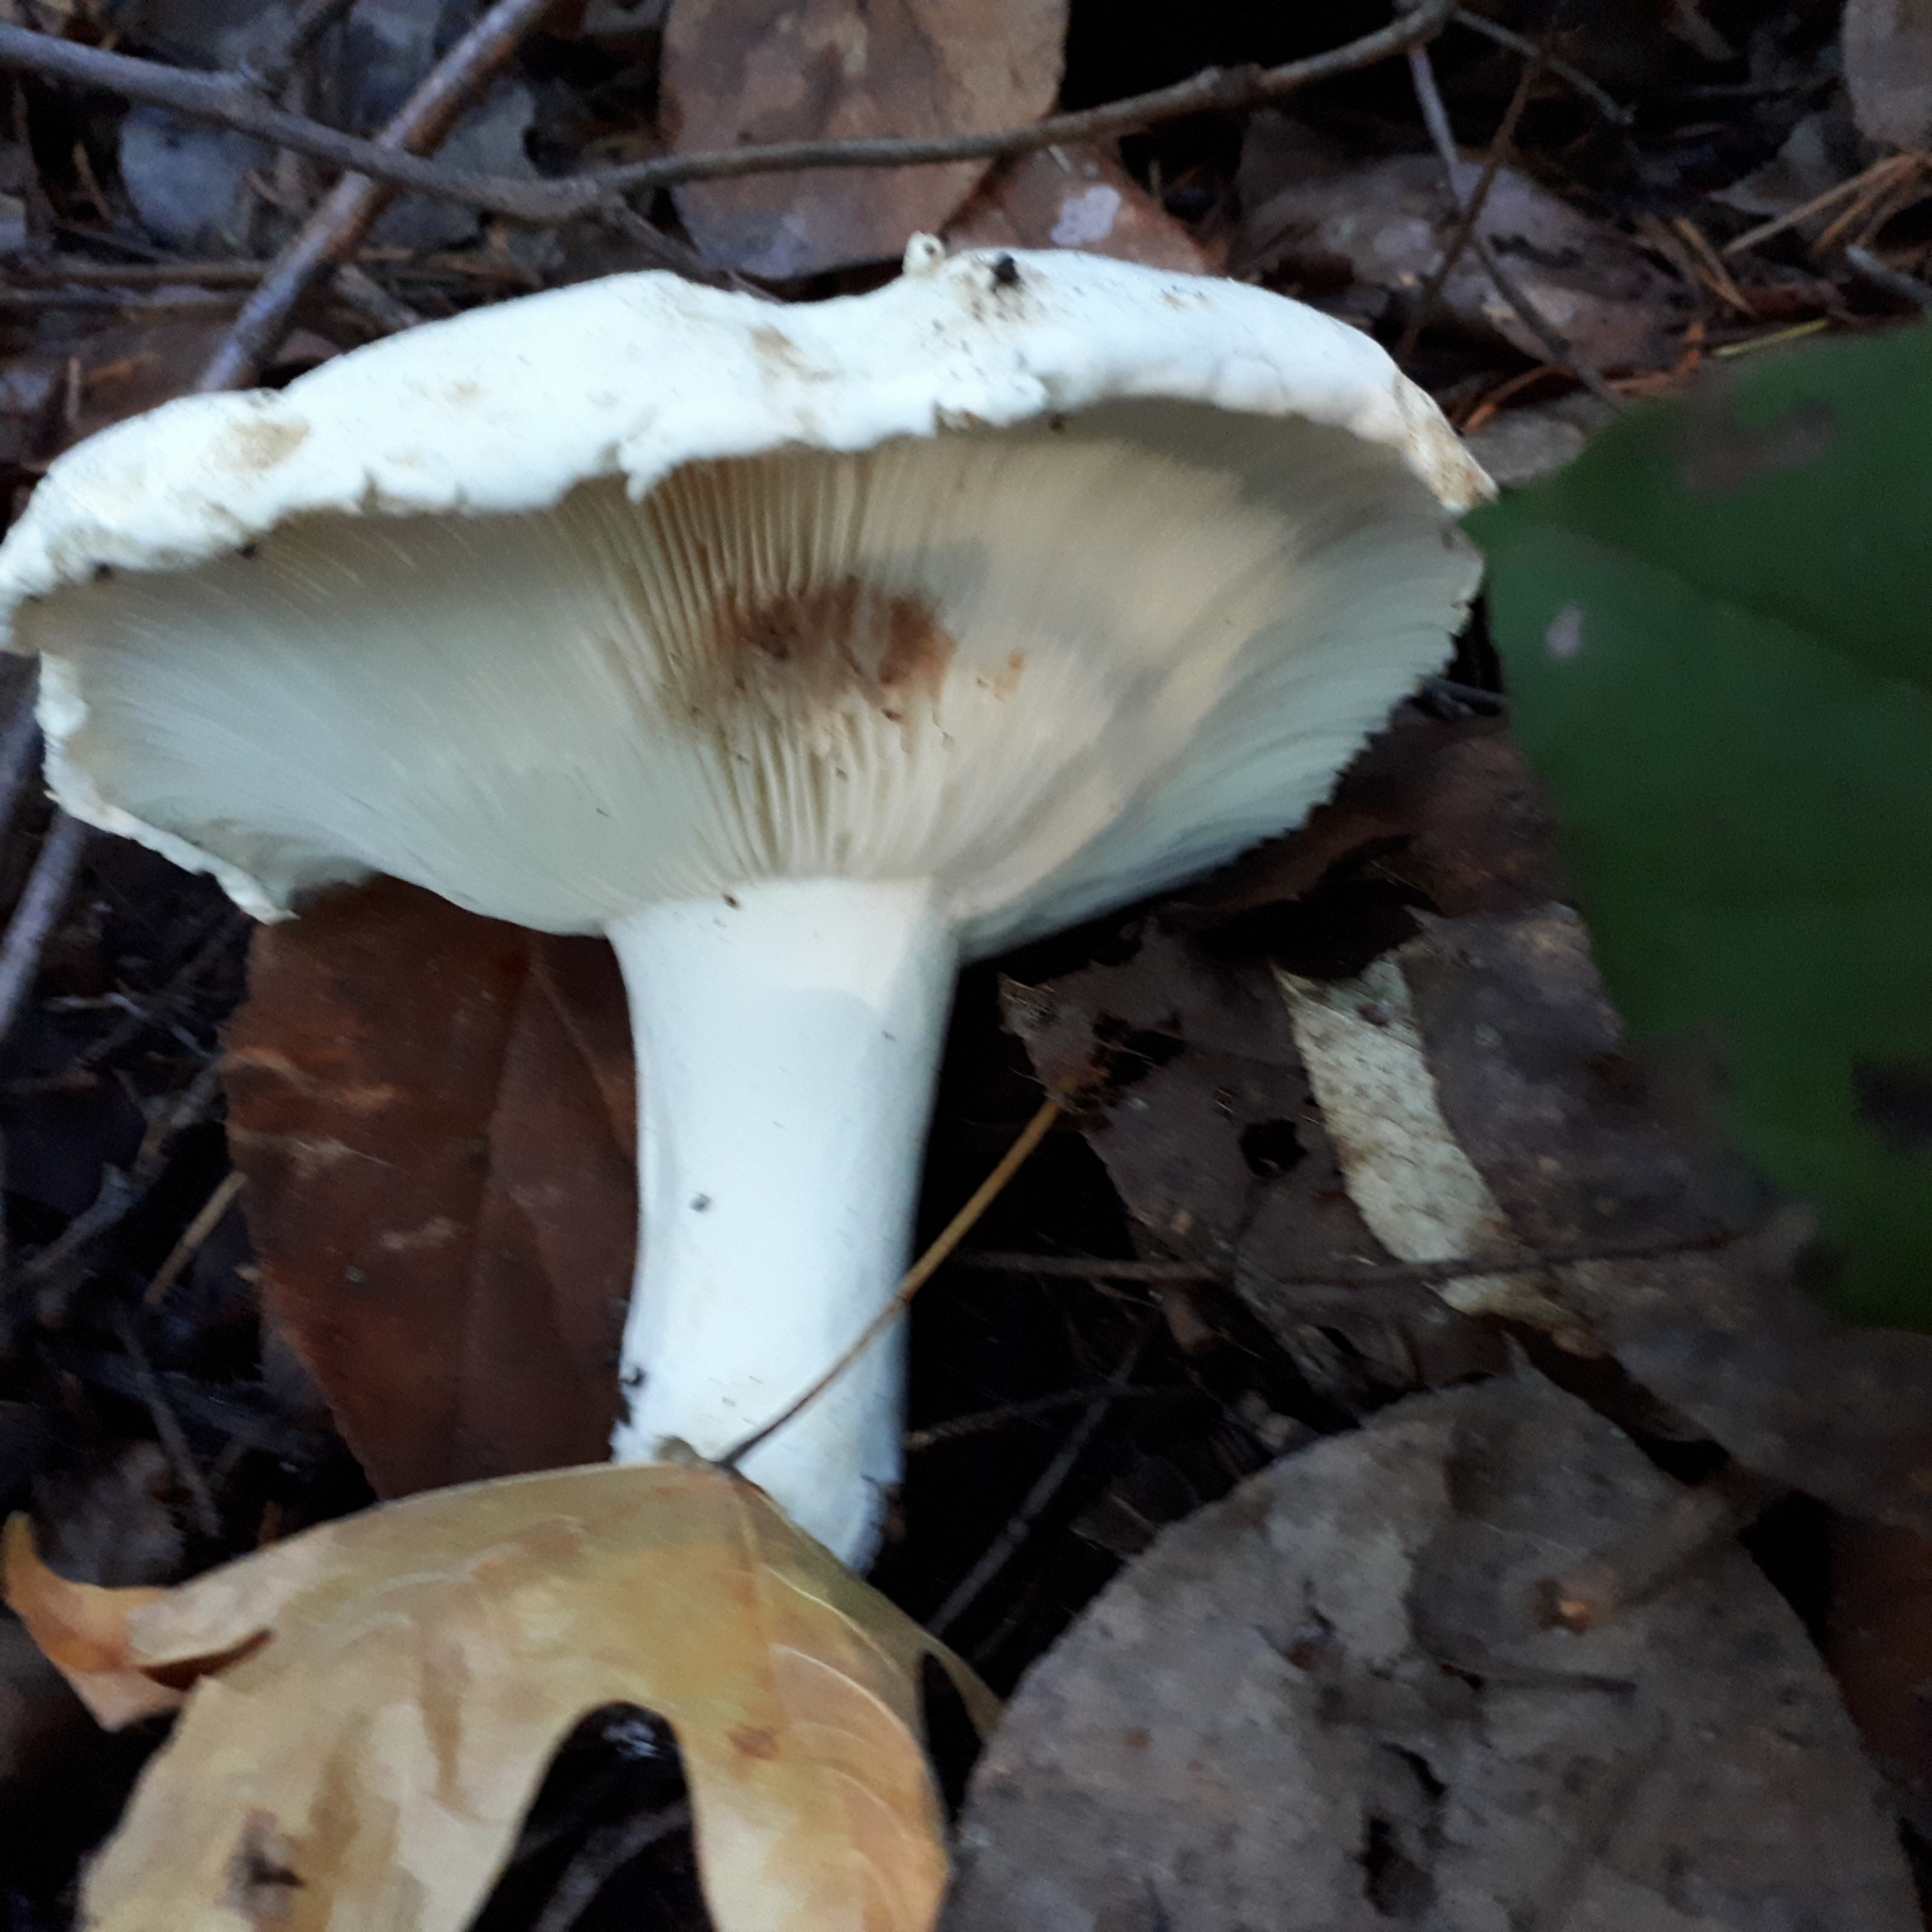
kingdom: Fungi
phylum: Basidiomycota
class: Agaricomycetes
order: Russulales
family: Russulaceae
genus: Russula
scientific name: Russula brevipes
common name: Short-stemmed russula
